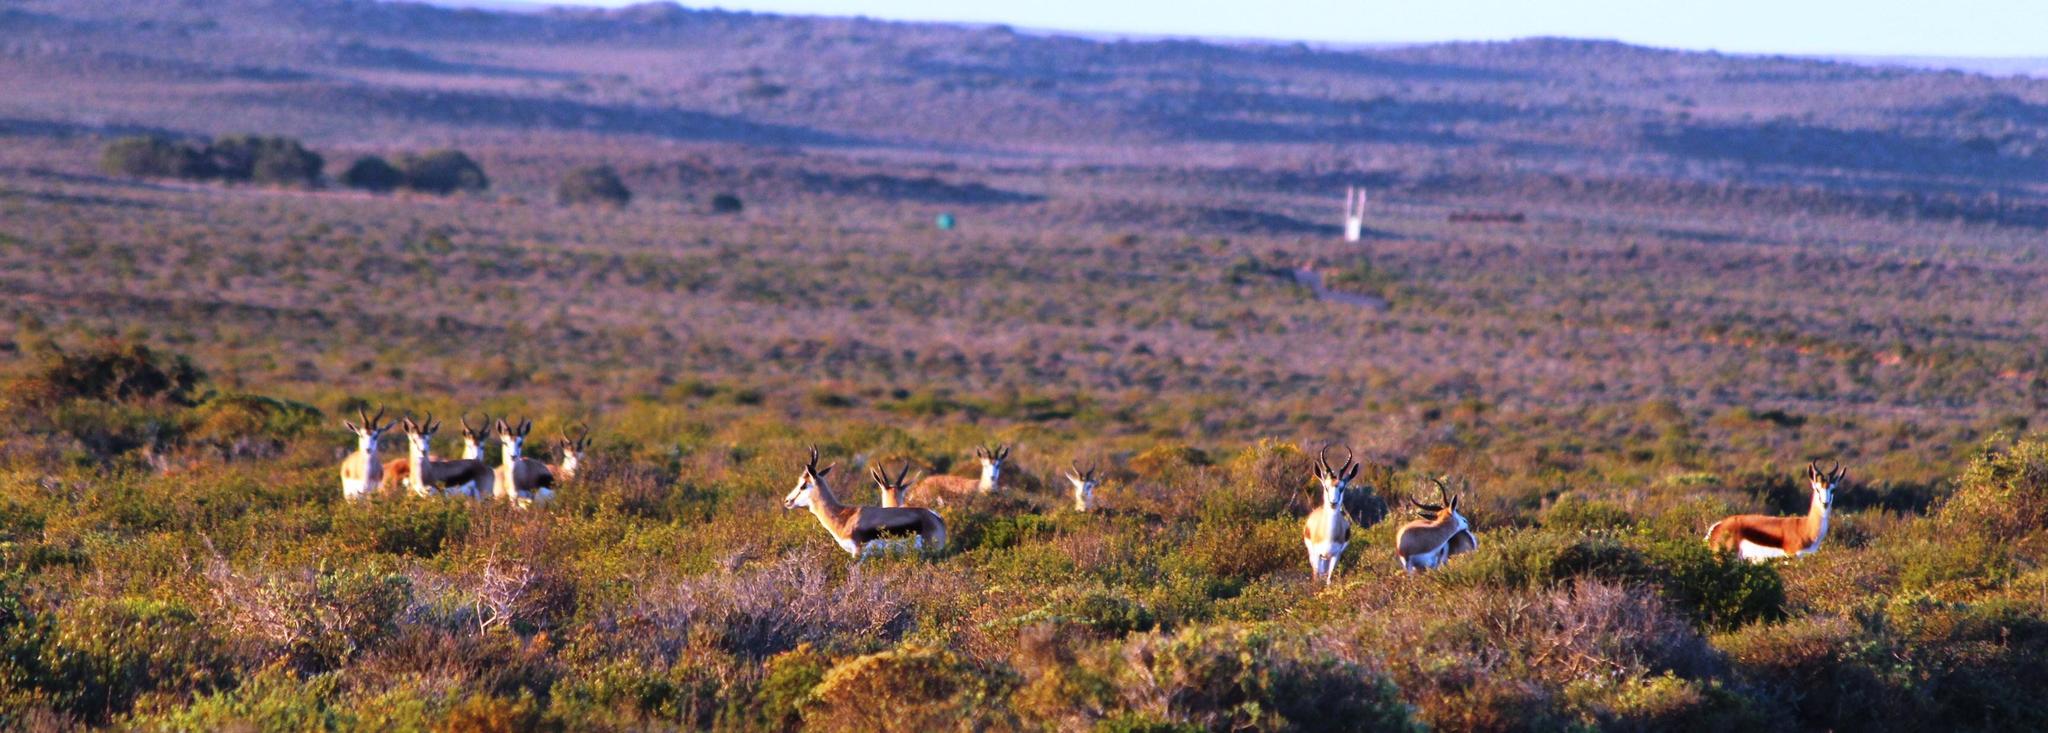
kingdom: Animalia
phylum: Chordata
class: Mammalia
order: Artiodactyla
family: Bovidae
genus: Antidorcas
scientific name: Antidorcas marsupialis
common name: Springbok
